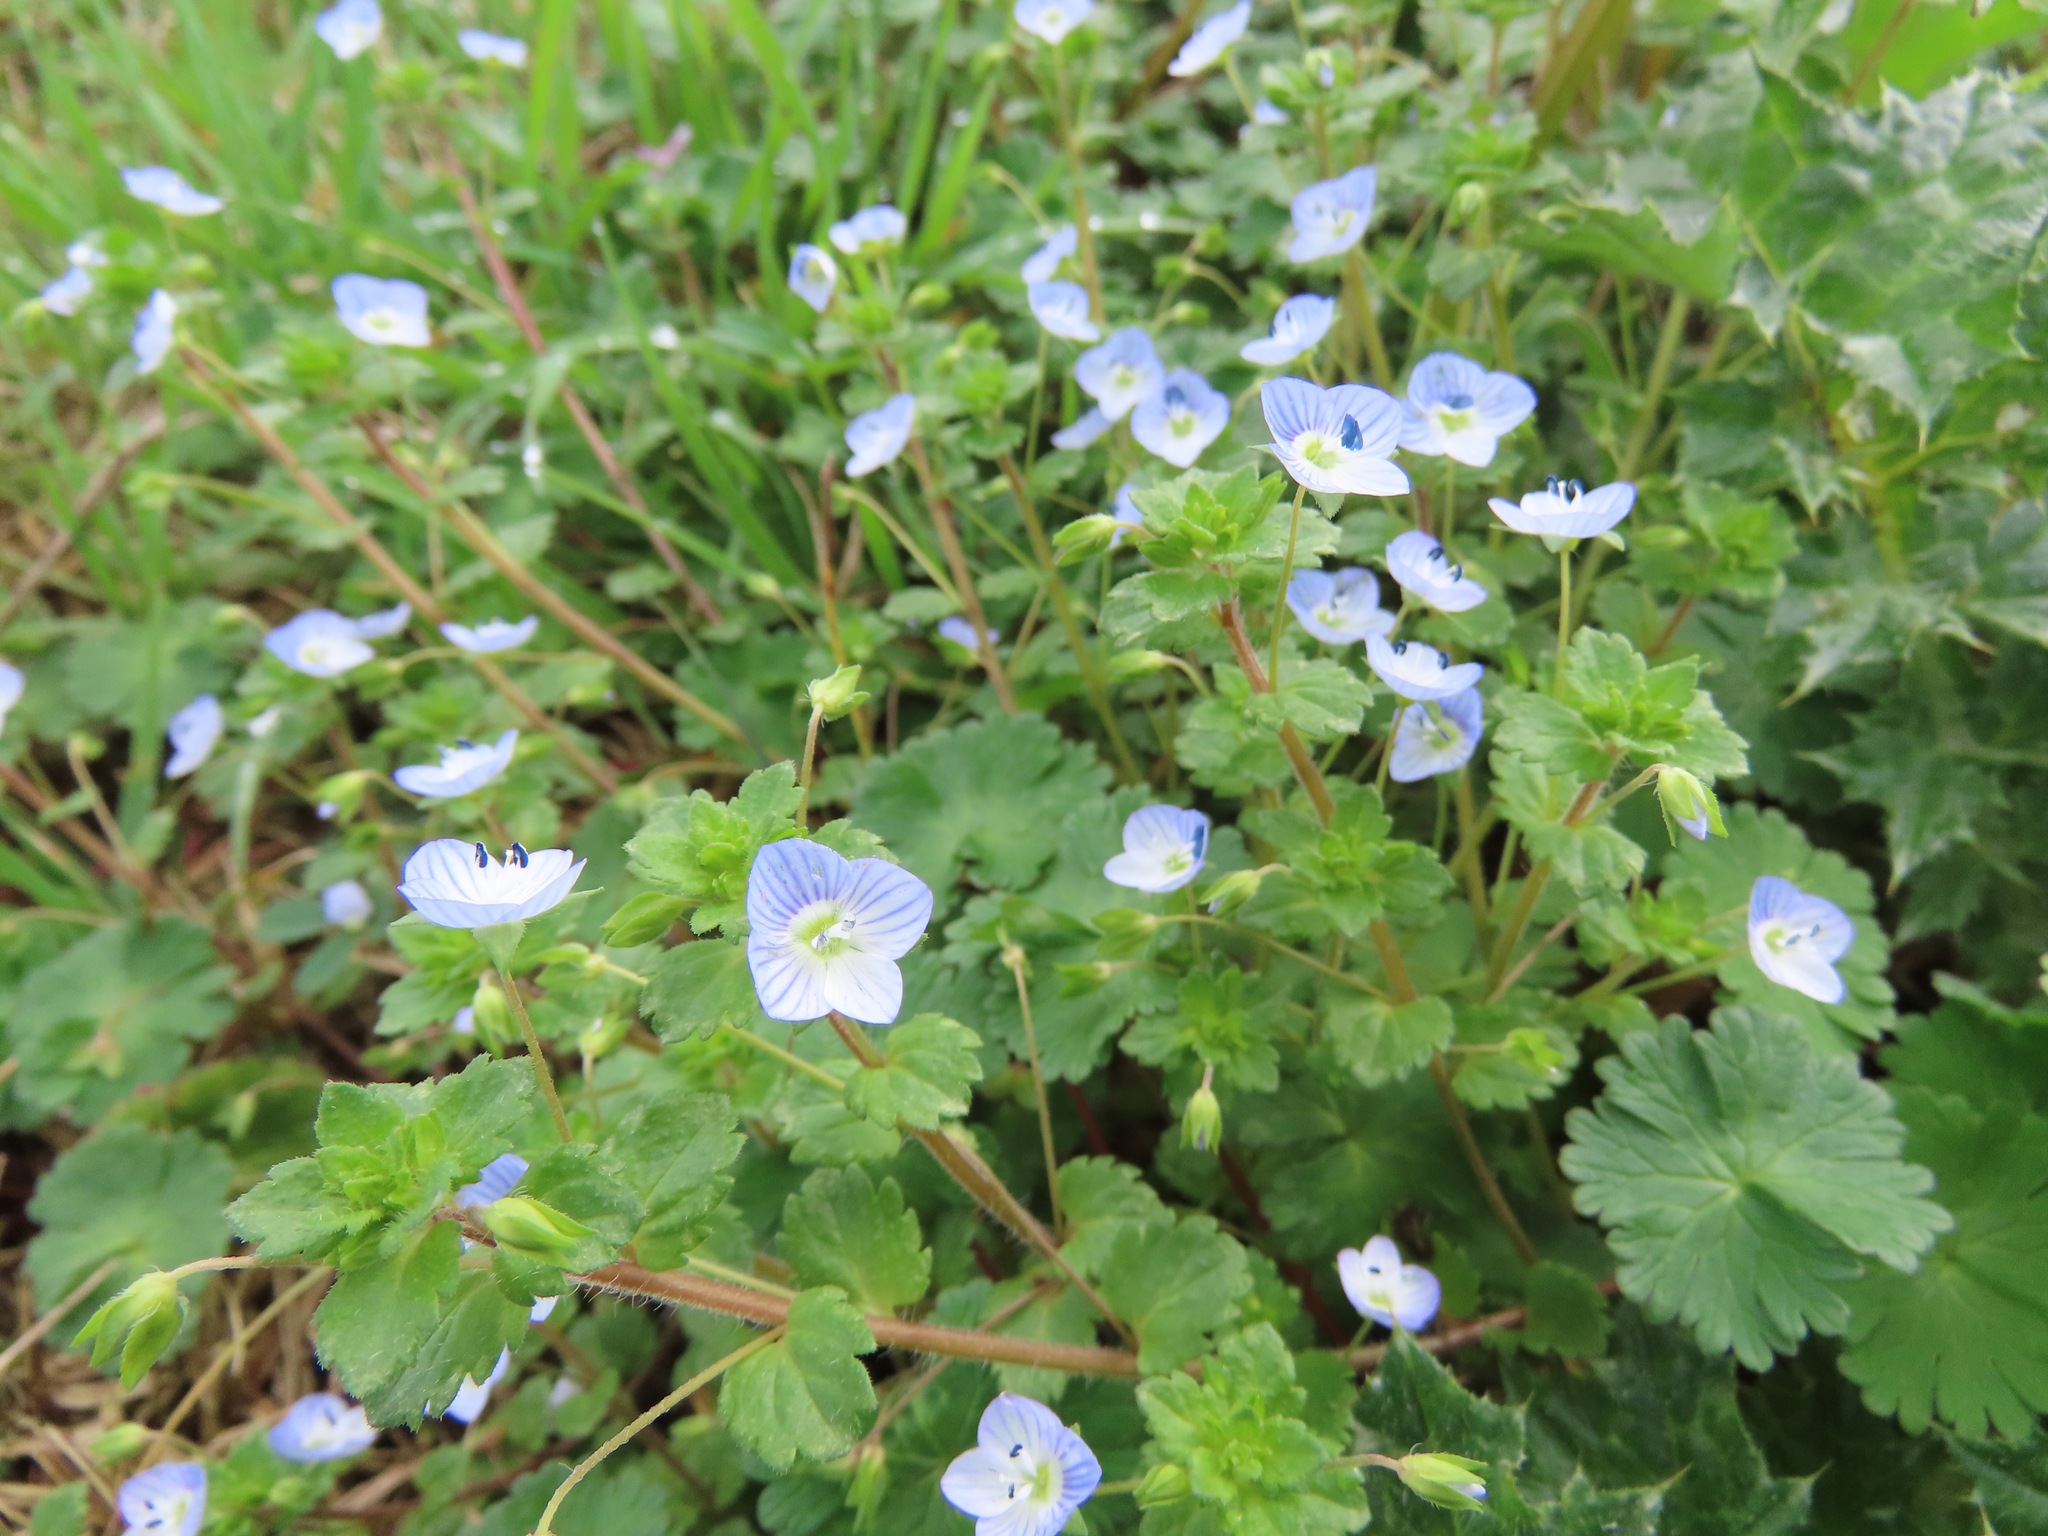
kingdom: Plantae
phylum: Tracheophyta
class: Magnoliopsida
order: Lamiales
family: Plantaginaceae
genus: Veronica
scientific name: Veronica persica
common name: Common field-speedwell
